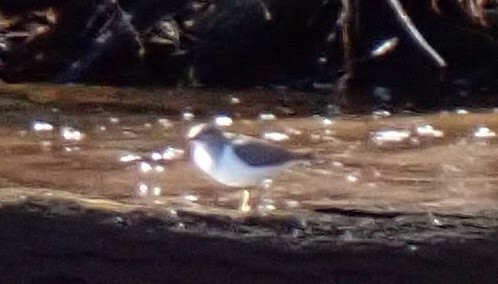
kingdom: Animalia
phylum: Chordata
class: Aves
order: Charadriiformes
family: Scolopacidae
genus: Actitis
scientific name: Actitis macularius
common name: Spotted sandpiper
